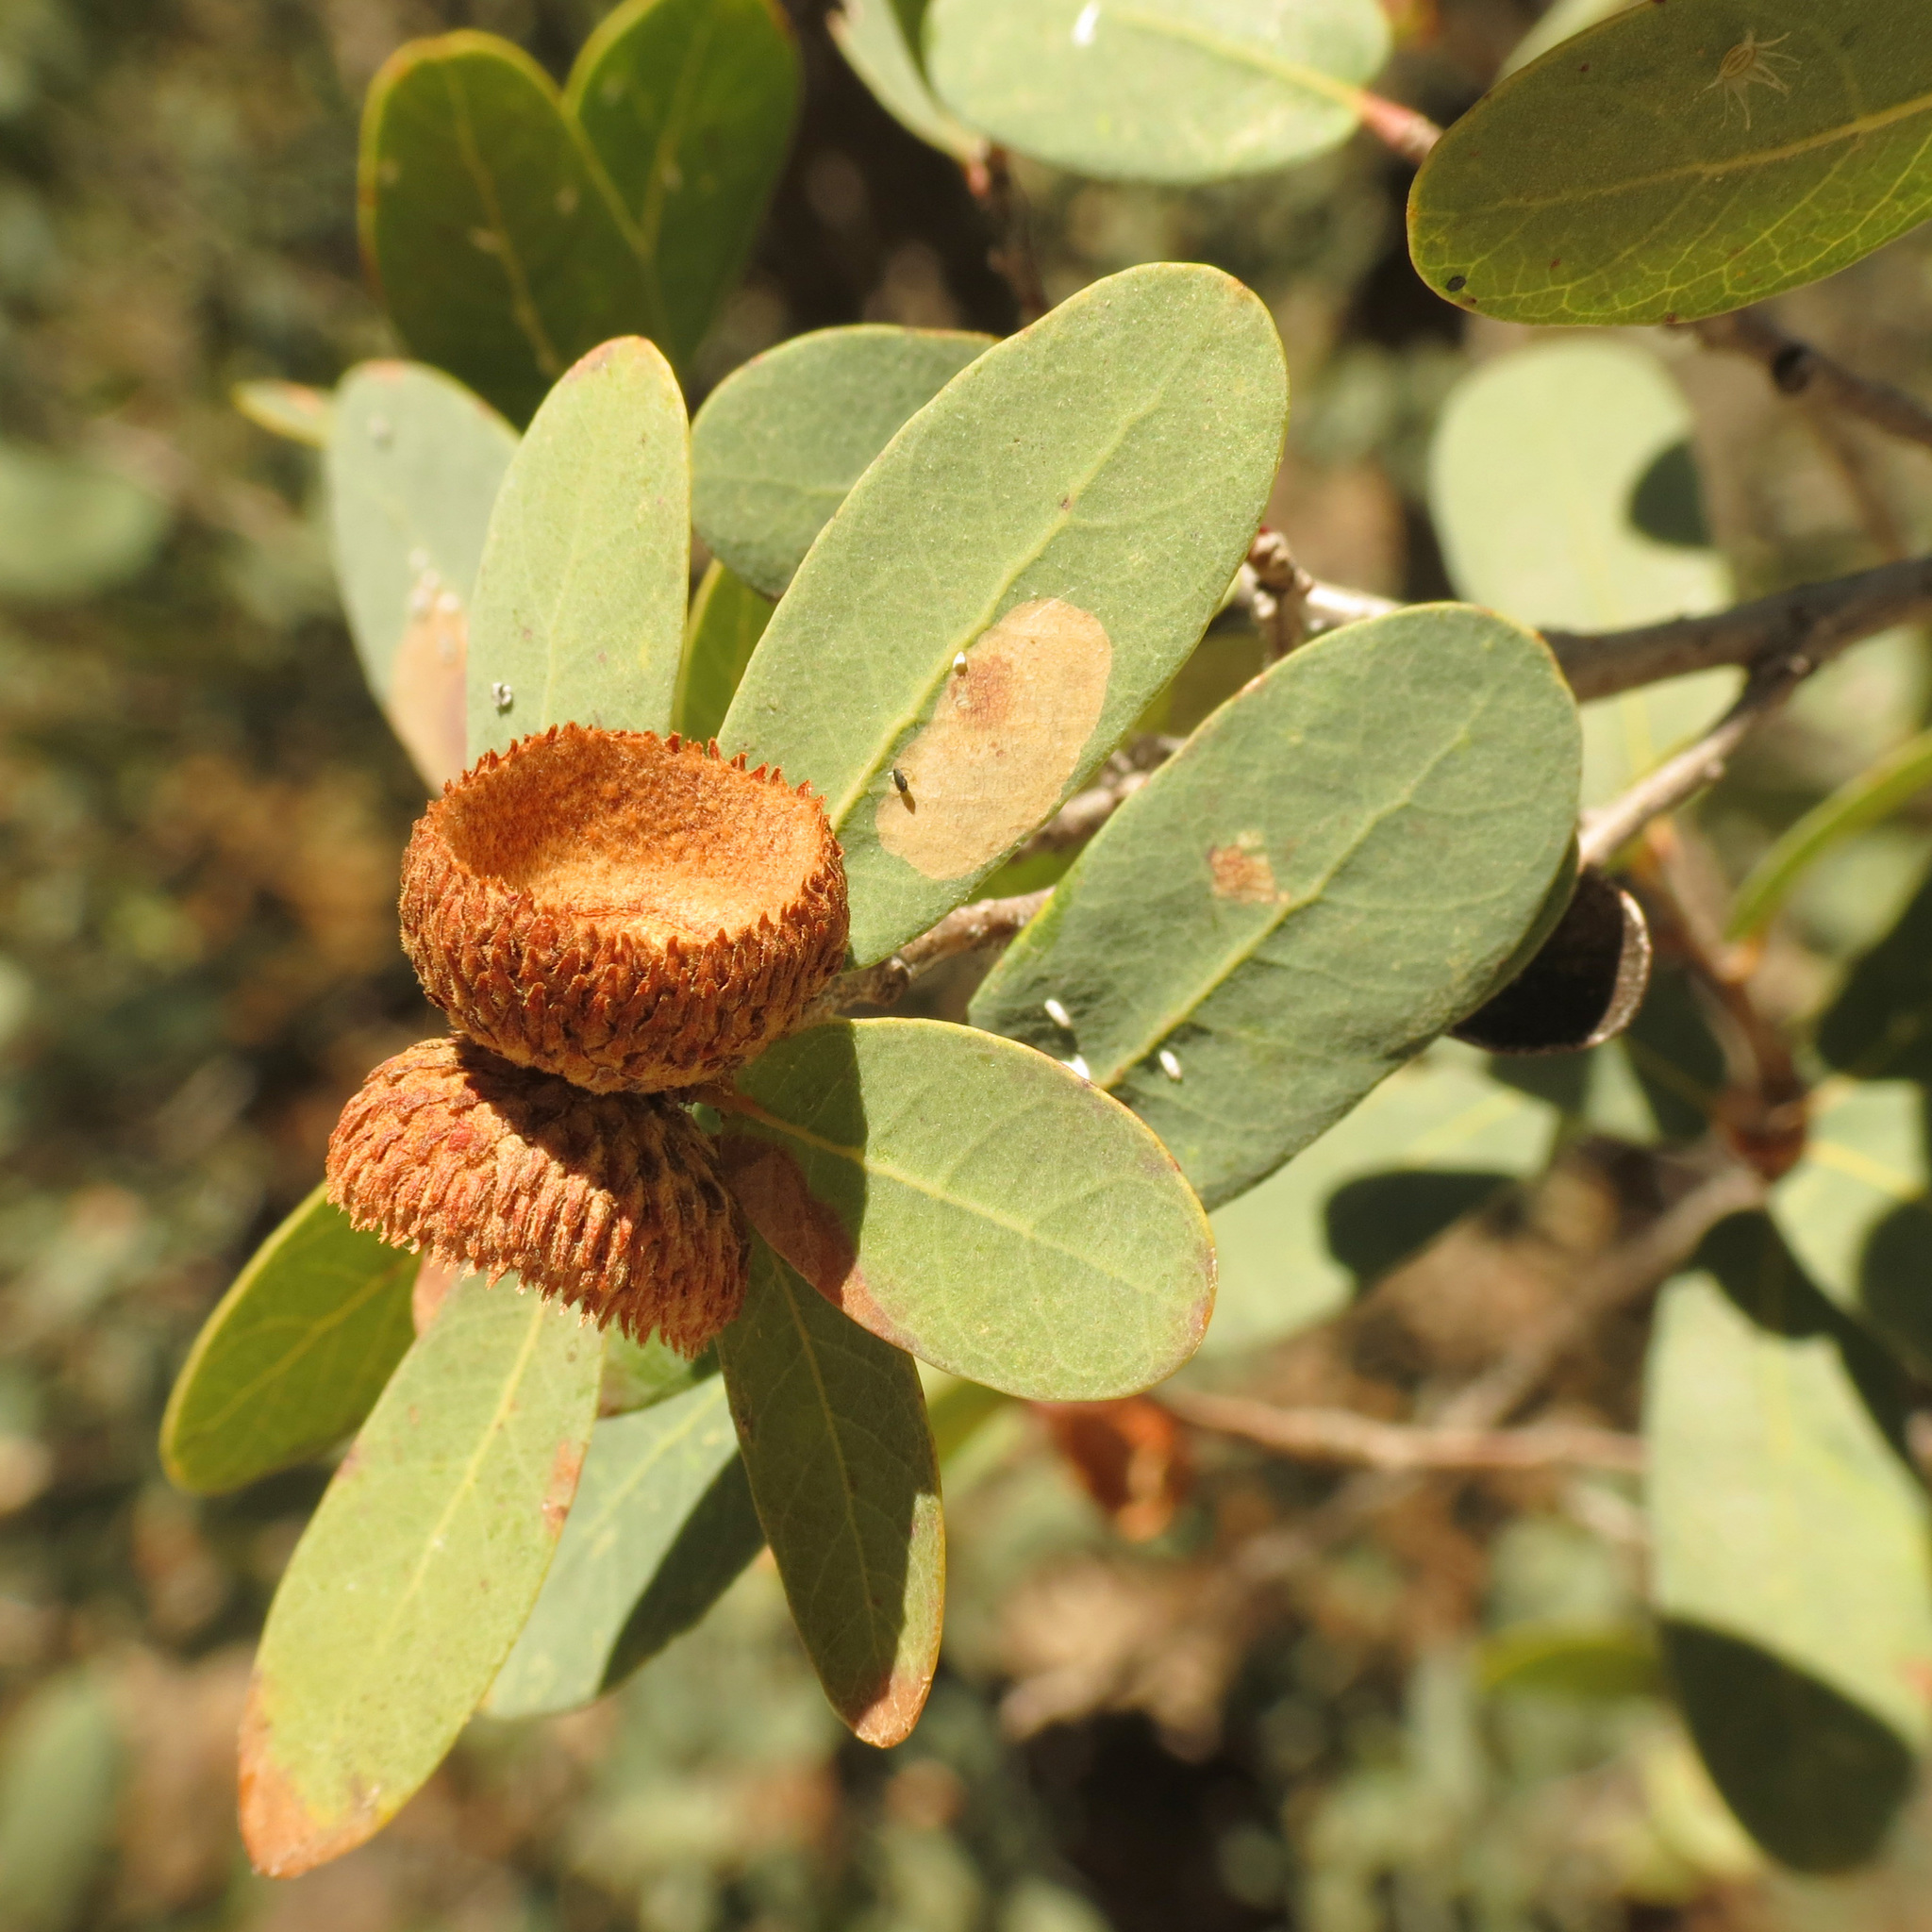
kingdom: Plantae
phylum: Tracheophyta
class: Magnoliopsida
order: Fagales
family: Fagaceae
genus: Quercus
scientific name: Quercus oblongifolia
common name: Mexican blue oak
